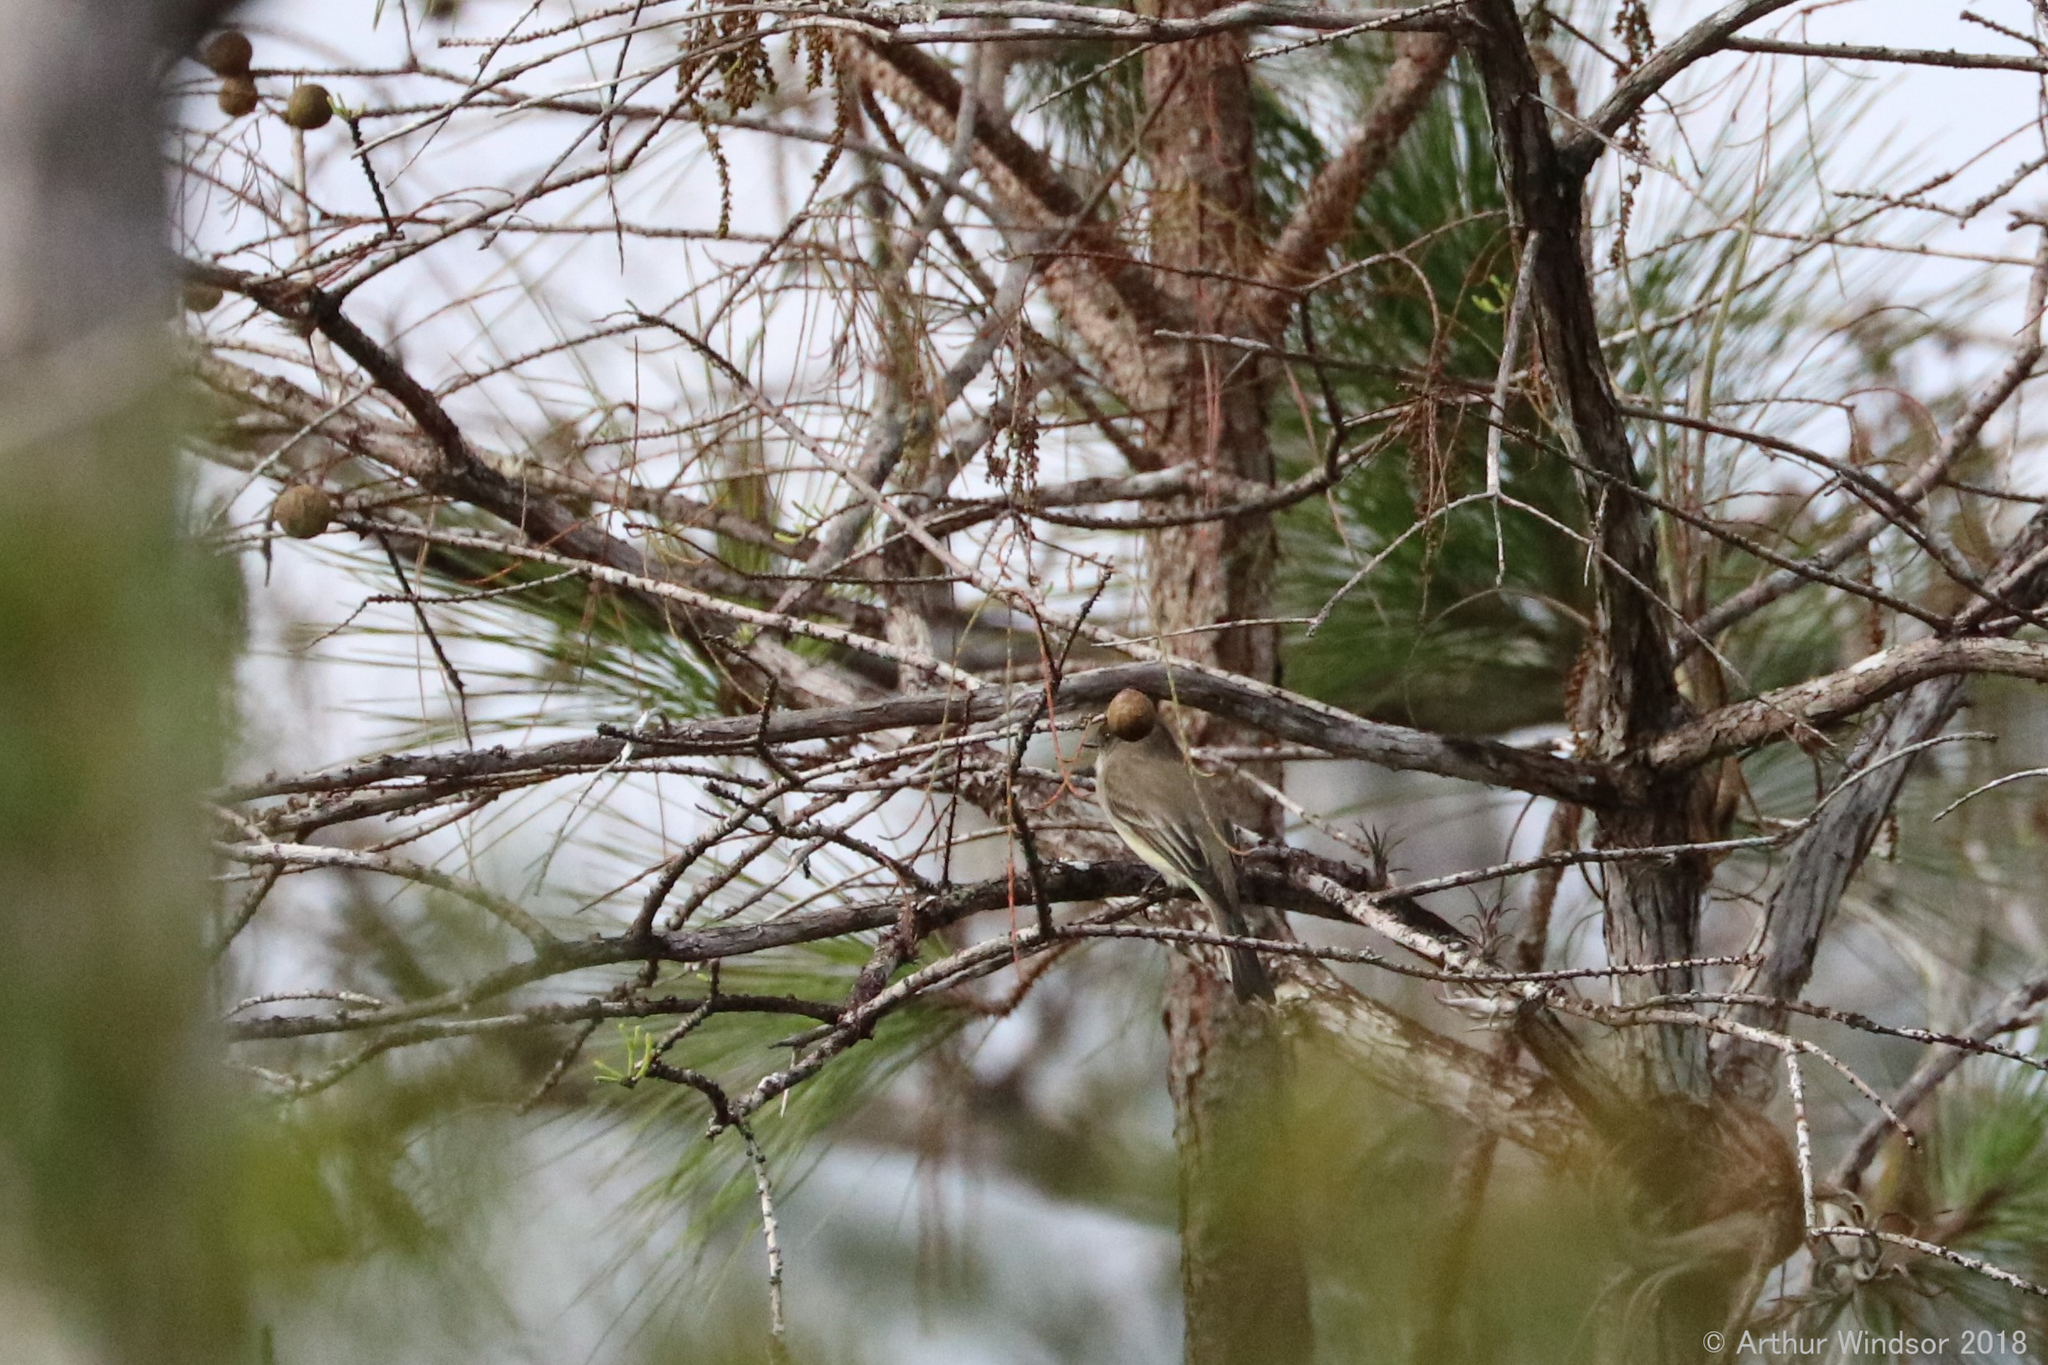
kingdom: Animalia
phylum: Chordata
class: Aves
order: Passeriformes
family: Tyrannidae
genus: Sayornis
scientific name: Sayornis phoebe
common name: Eastern phoebe
